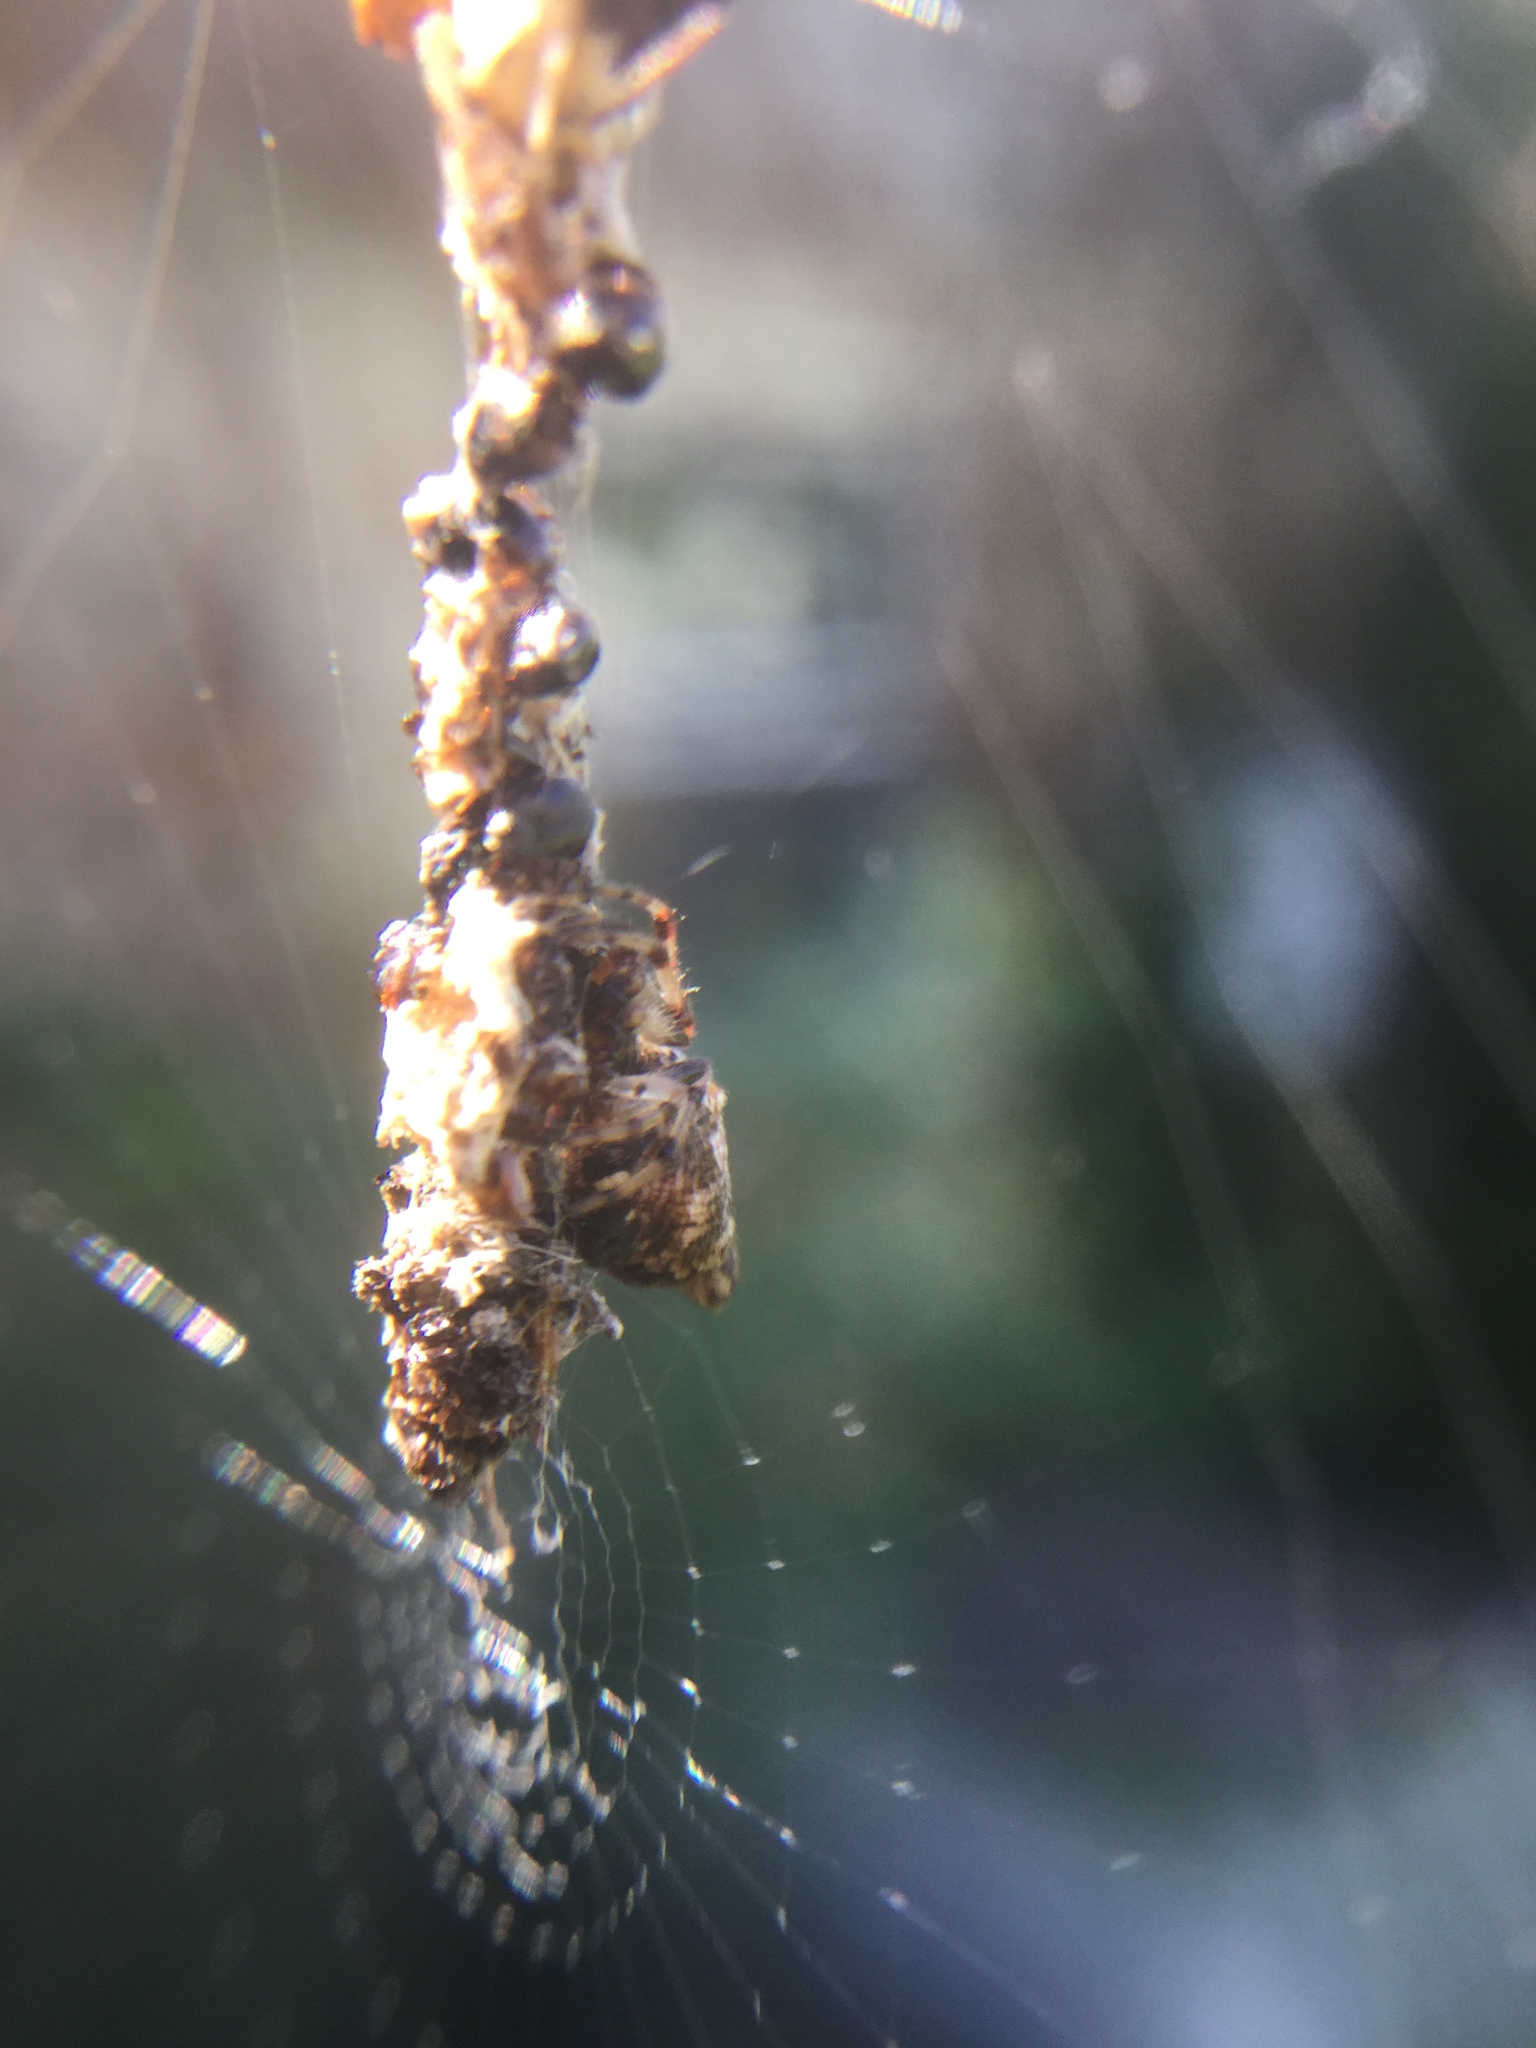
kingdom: Animalia
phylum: Arthropoda
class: Arachnida
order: Araneae
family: Araneidae
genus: Cyclosa
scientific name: Cyclosa turbinata
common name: Orb weavers
